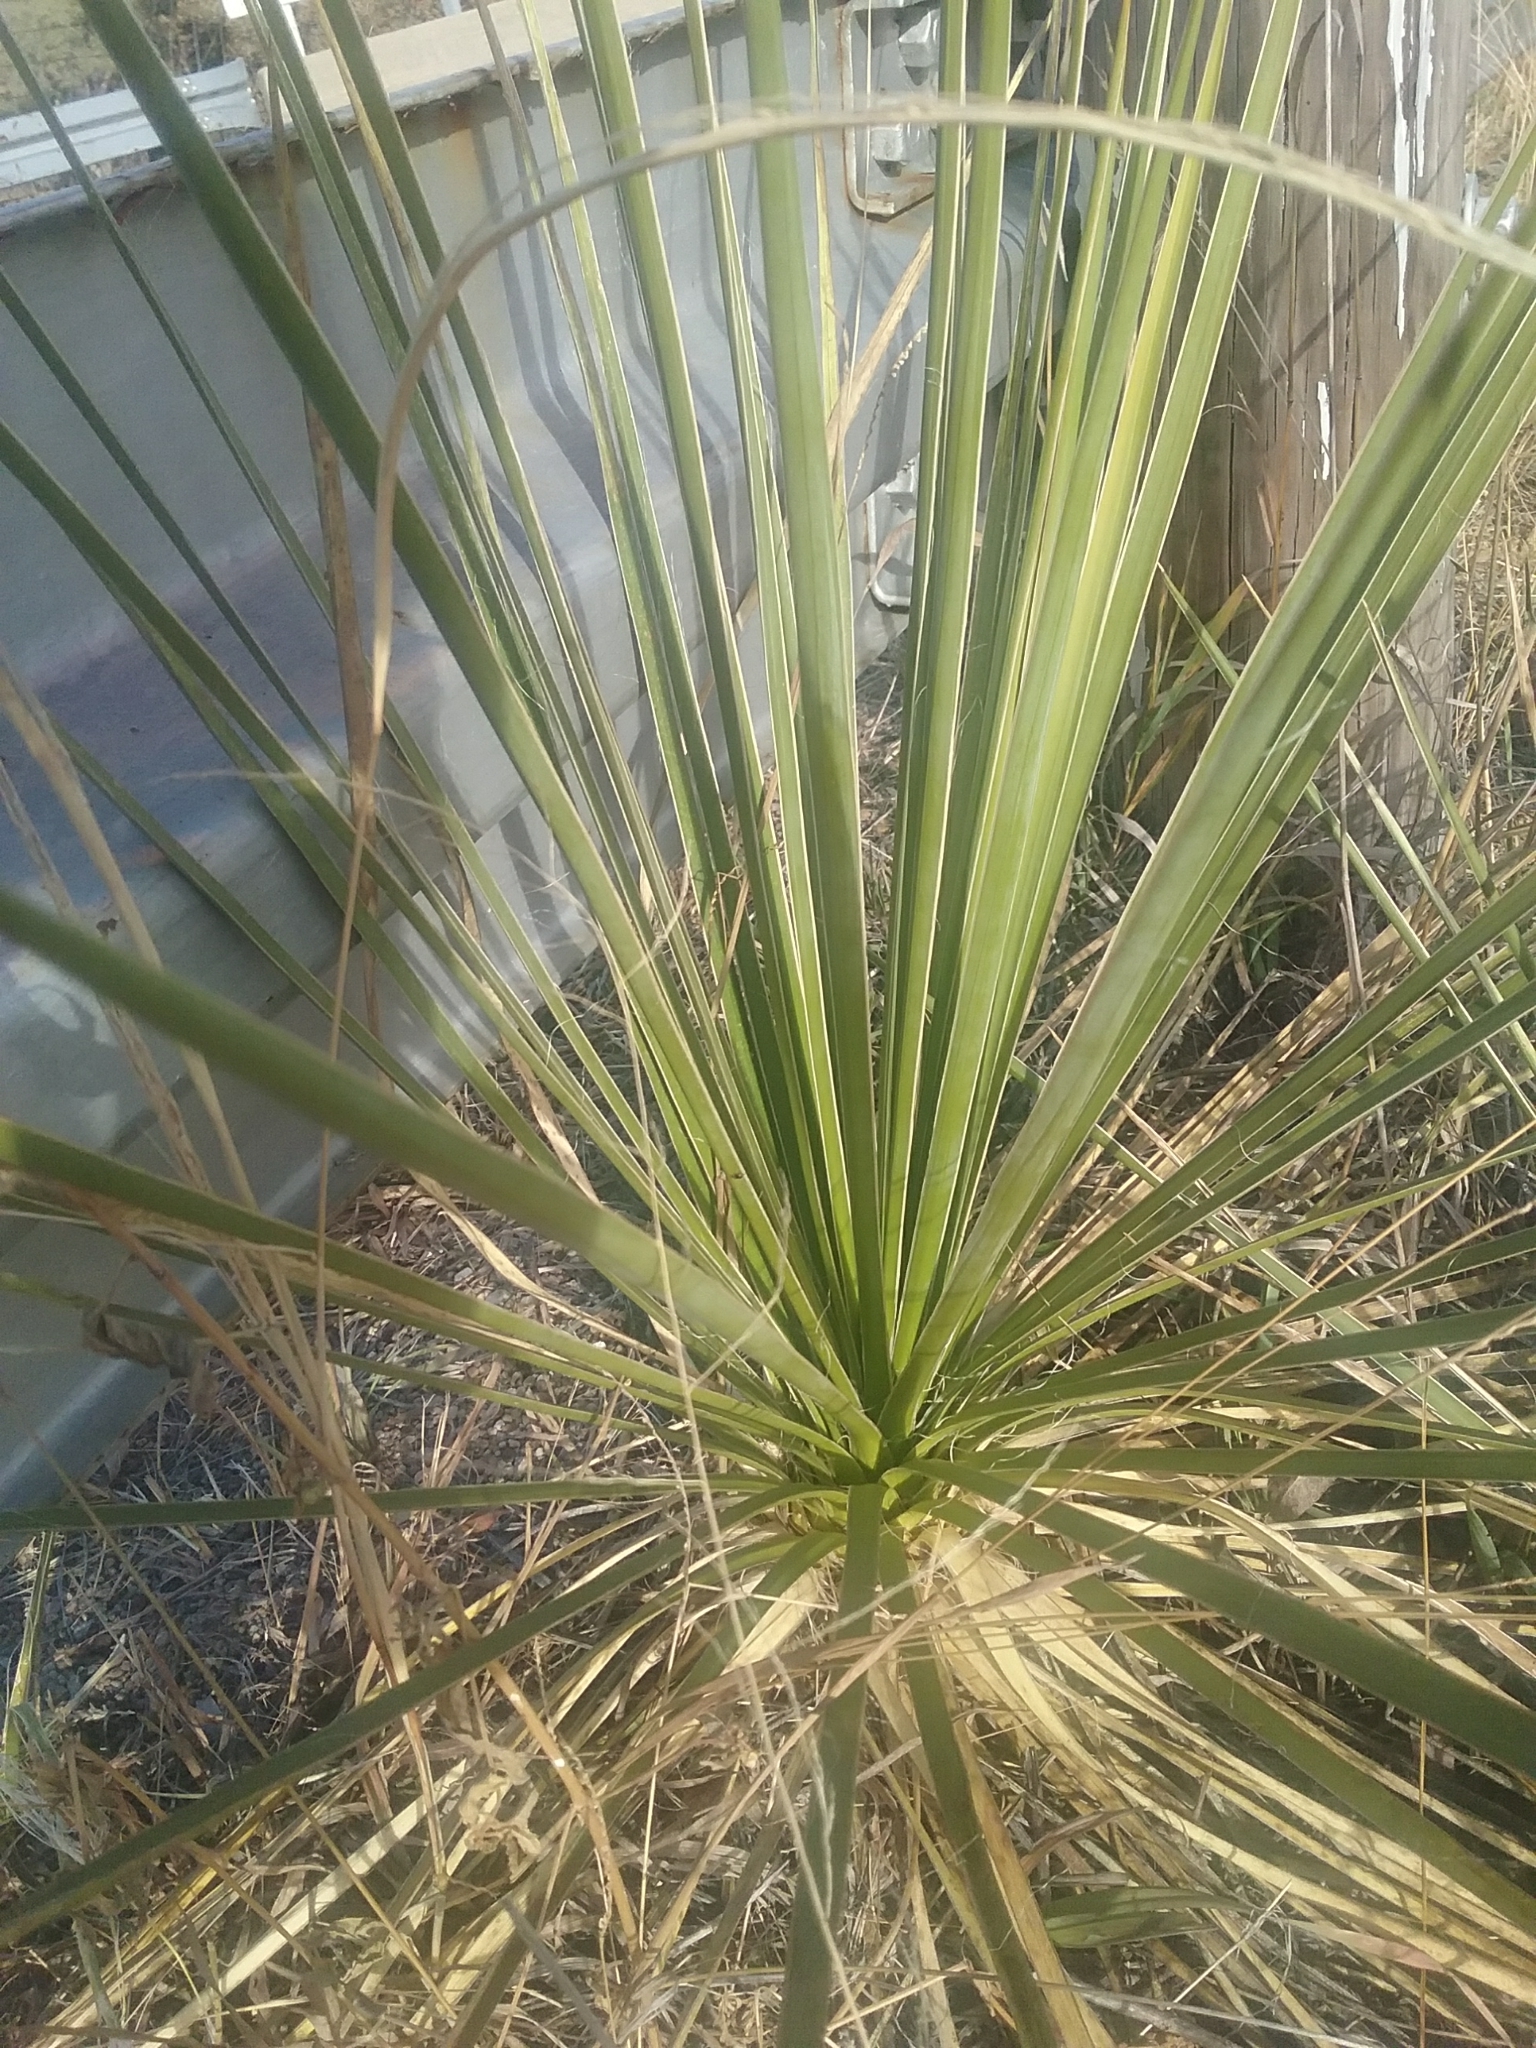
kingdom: Plantae
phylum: Tracheophyta
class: Liliopsida
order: Asparagales
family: Asparagaceae
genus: Yucca
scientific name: Yucca glauca
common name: Great plains yucca
